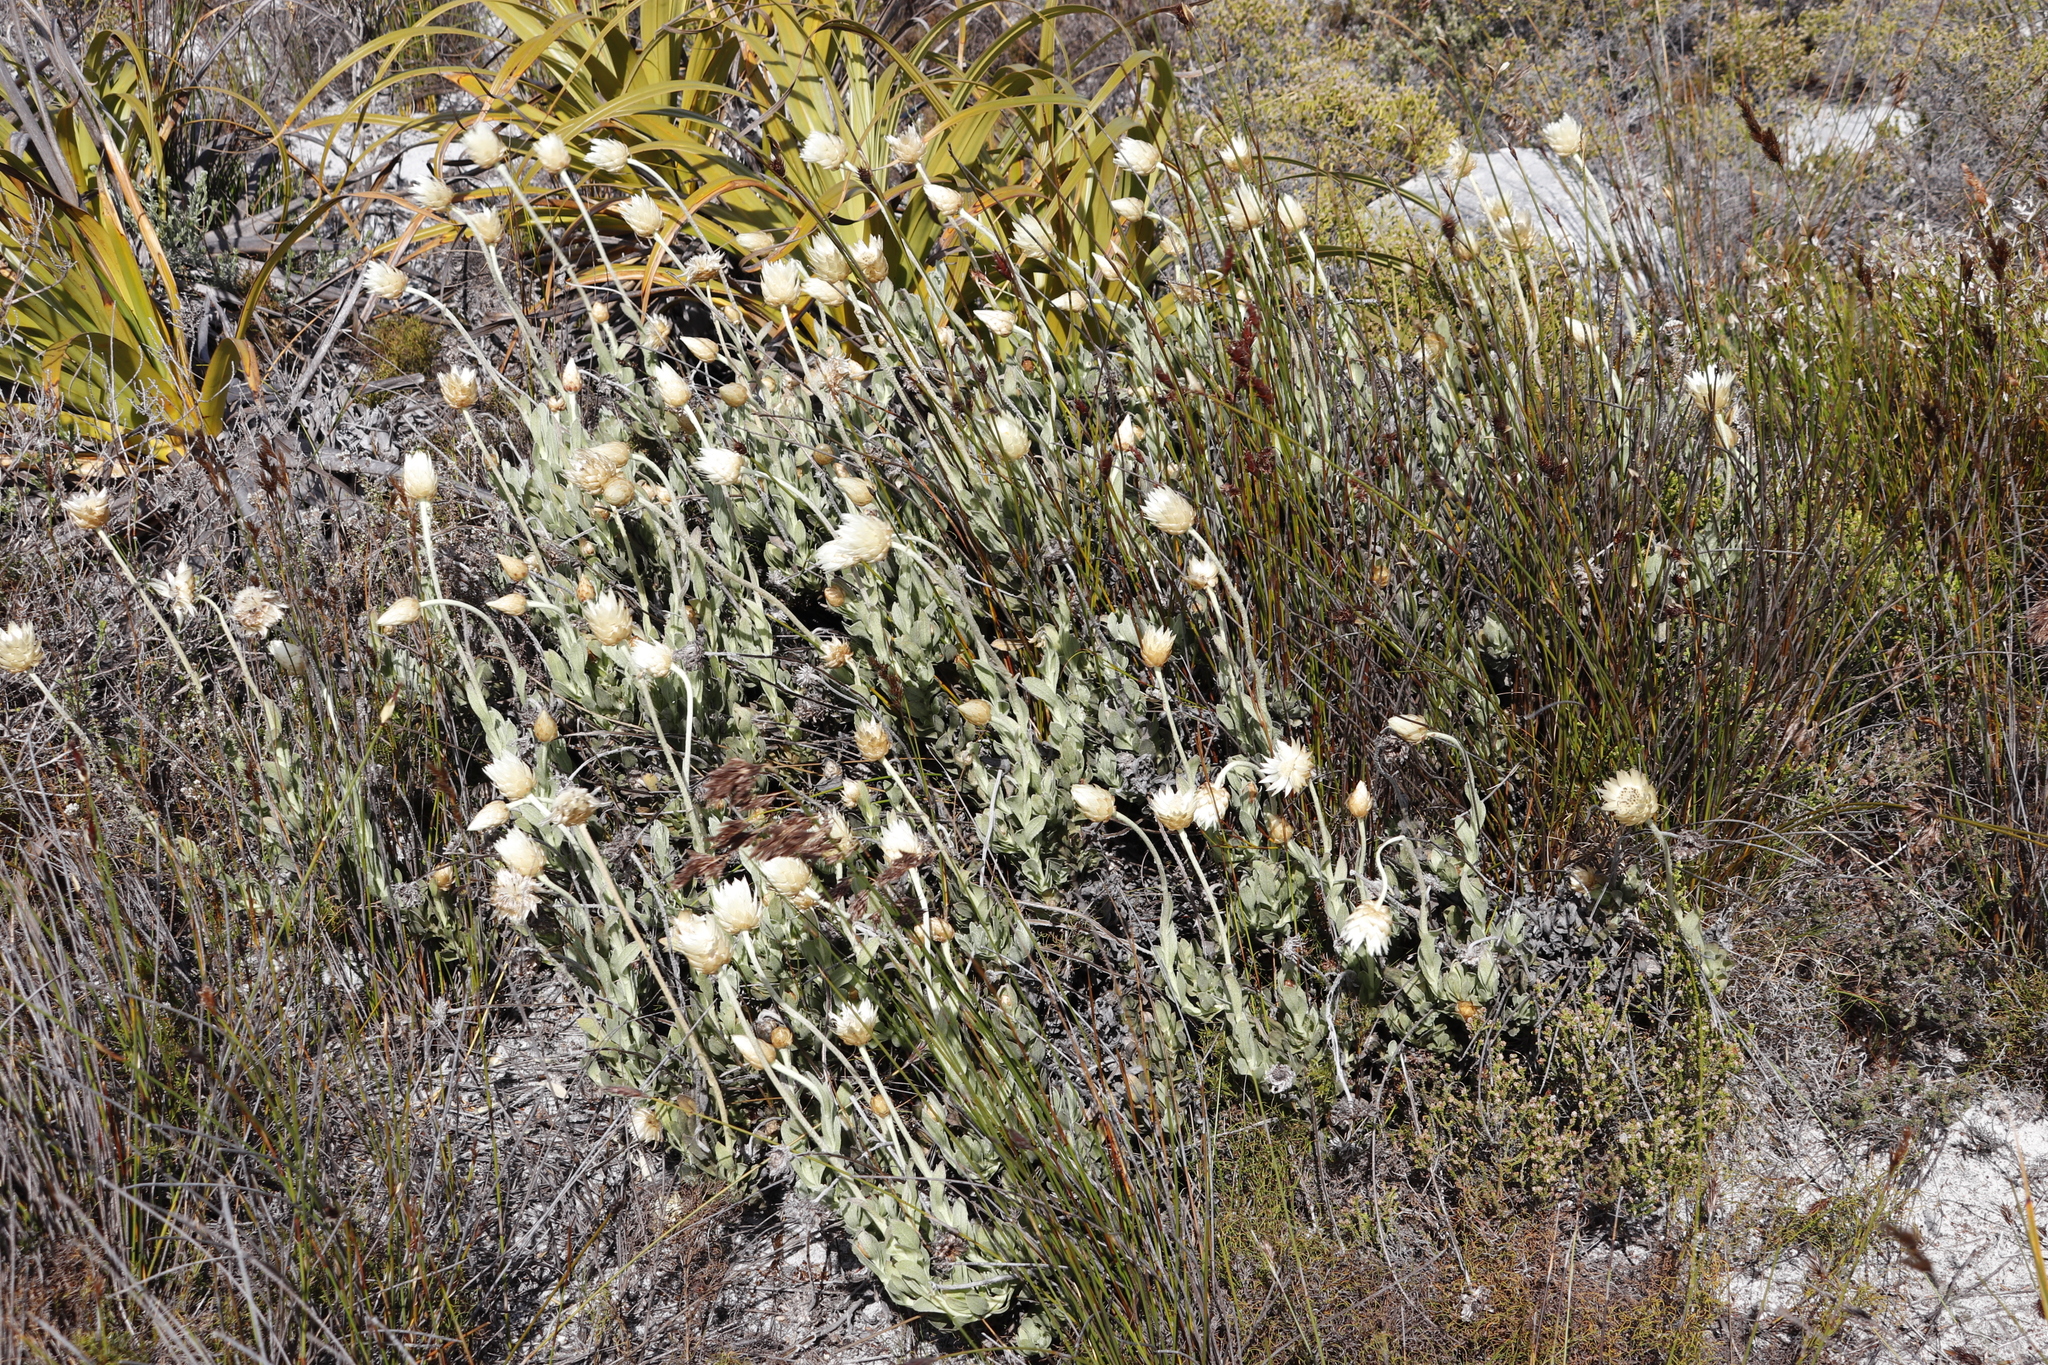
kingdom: Plantae
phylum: Tracheophyta
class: Magnoliopsida
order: Asterales
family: Asteraceae
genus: Syncarpha
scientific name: Syncarpha speciosissima
